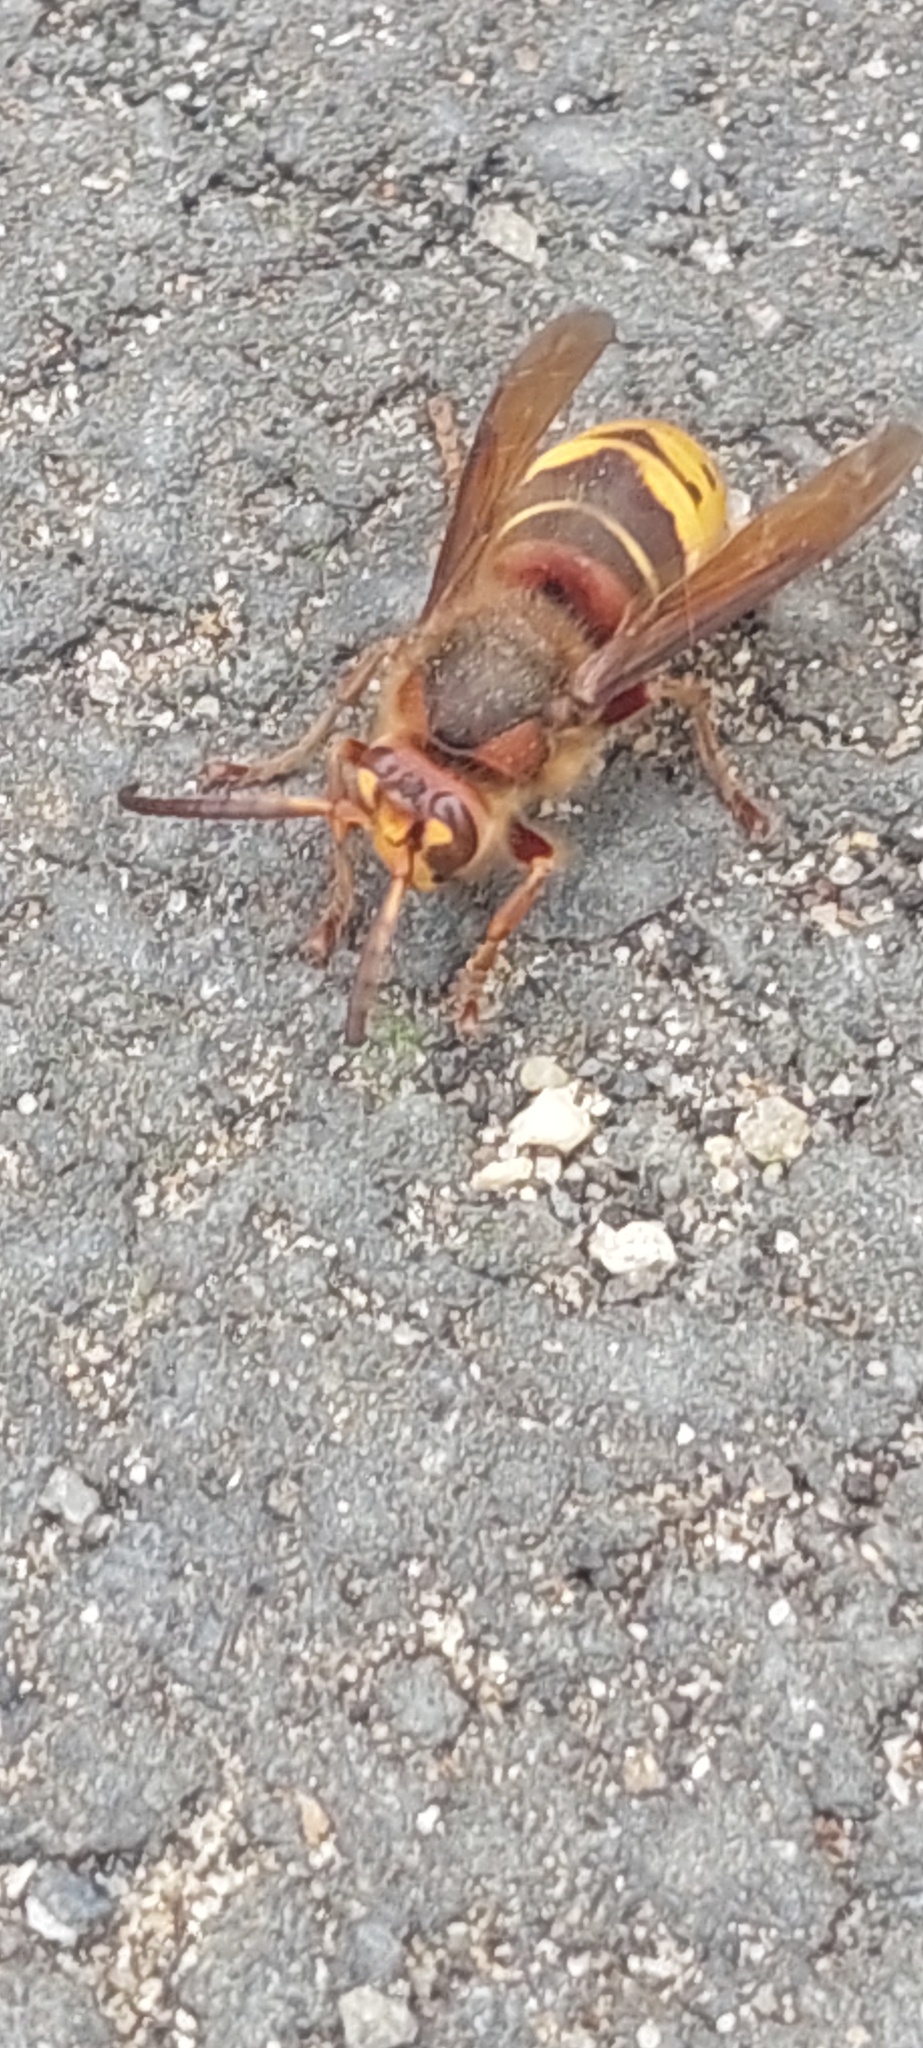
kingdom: Animalia
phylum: Arthropoda
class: Insecta
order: Hymenoptera
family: Vespidae
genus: Vespa
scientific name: Vespa crabro
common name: Hornet
